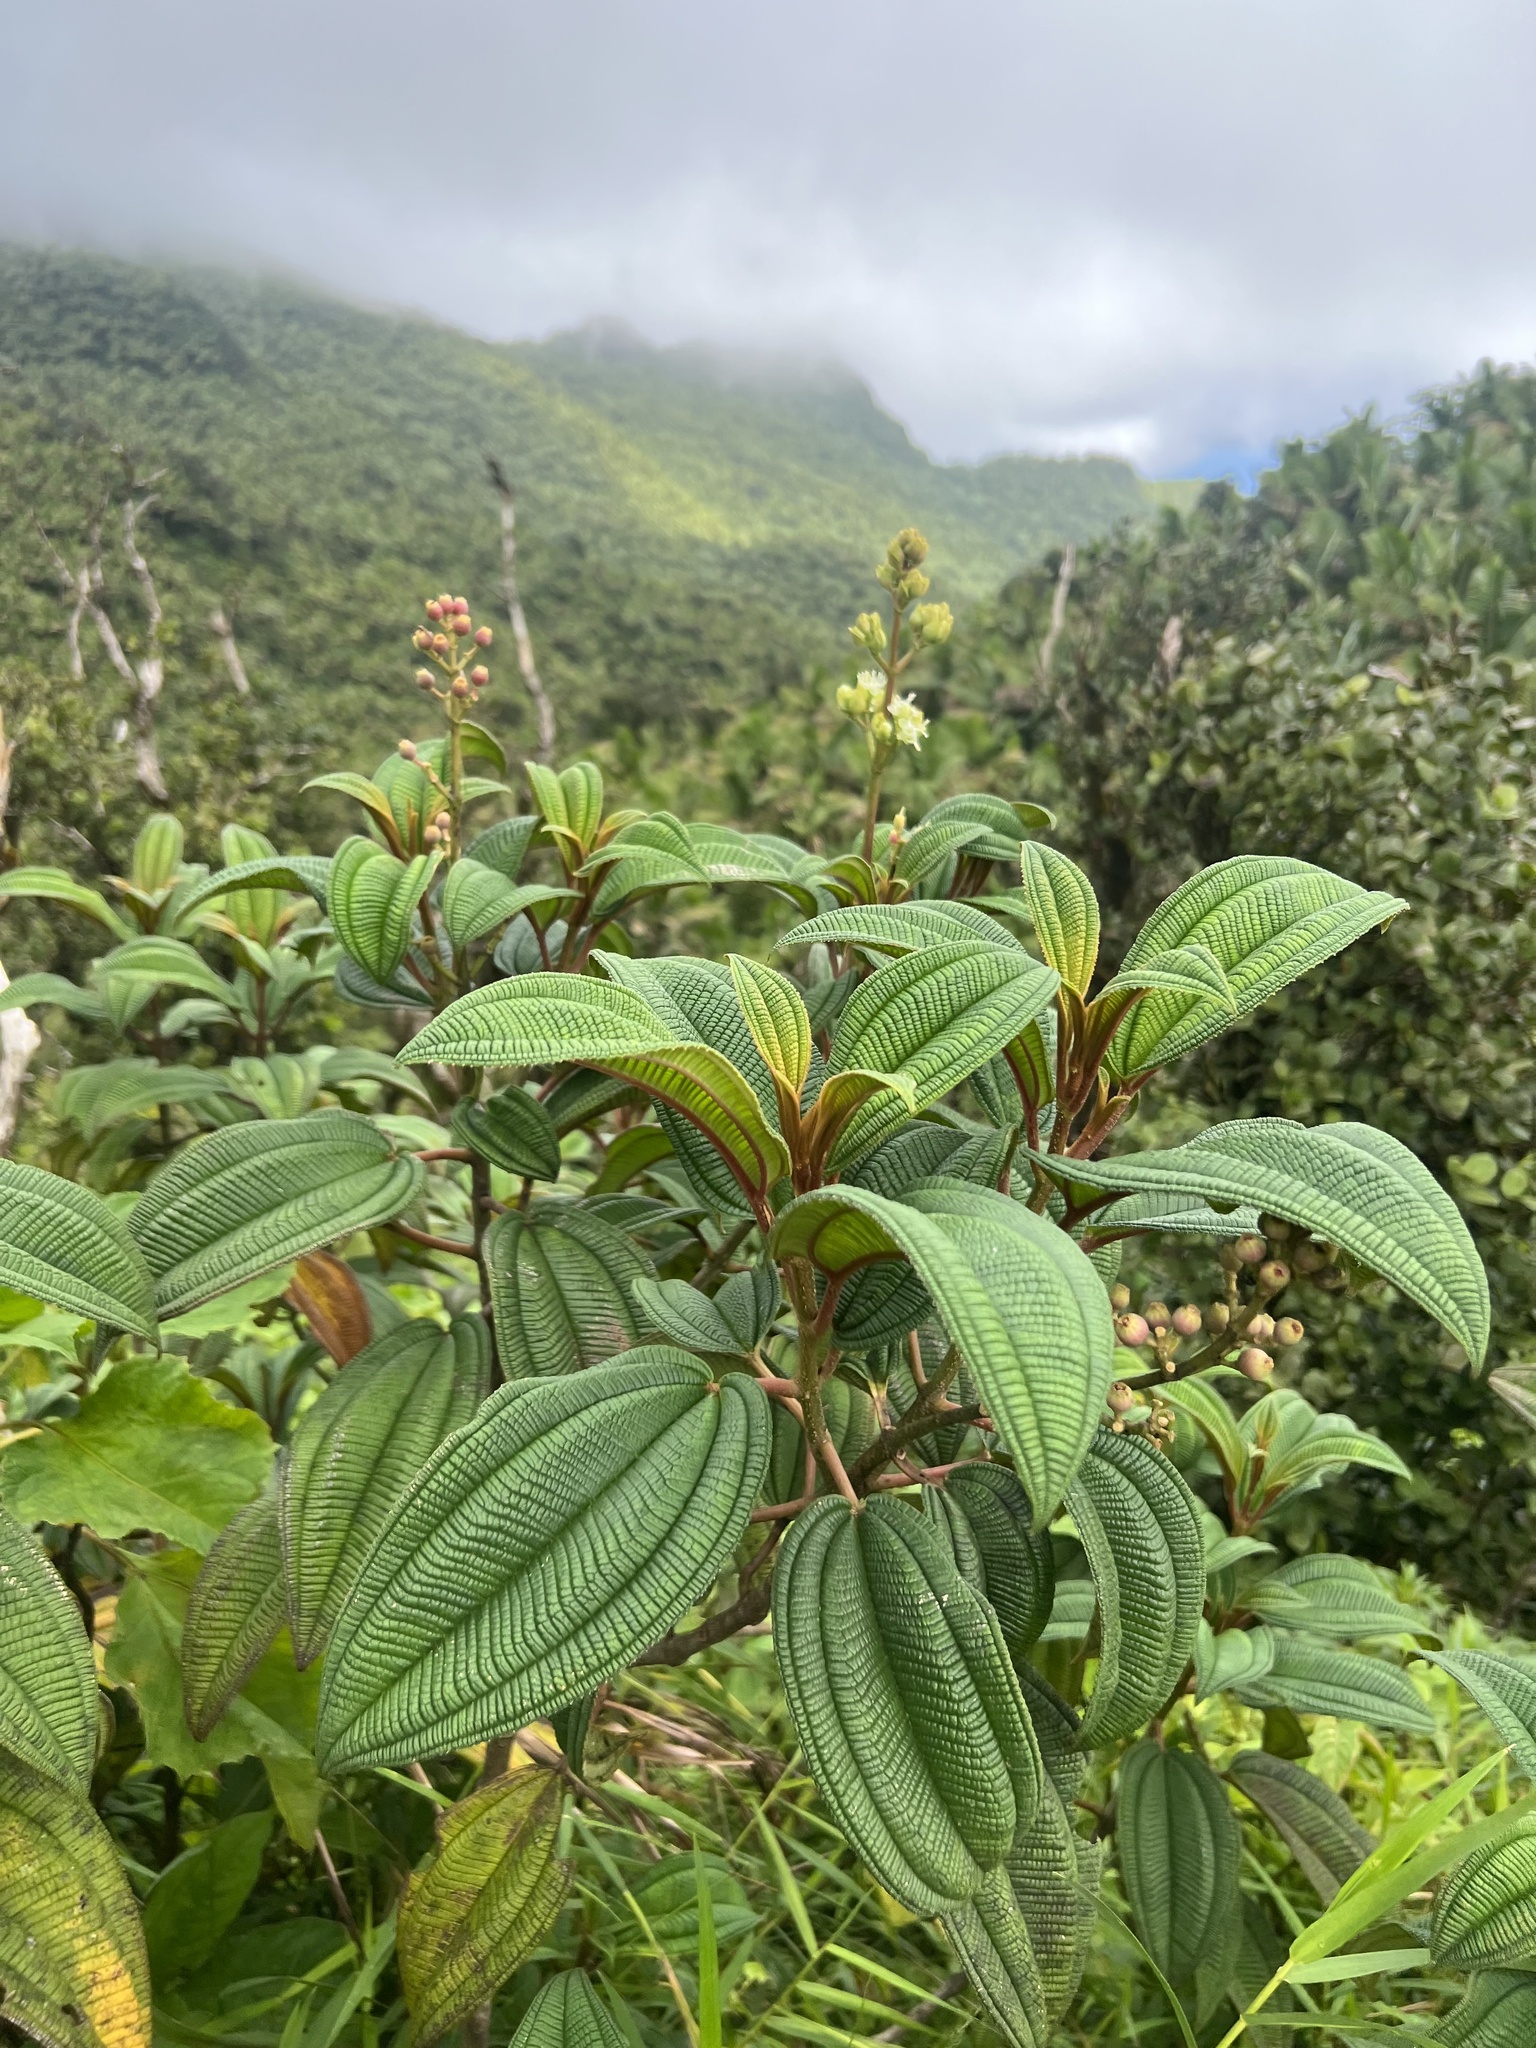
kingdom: Plantae
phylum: Tracheophyta
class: Magnoliopsida
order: Myrtales
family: Melastomataceae
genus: Miconia
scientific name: Miconia sintenisii
